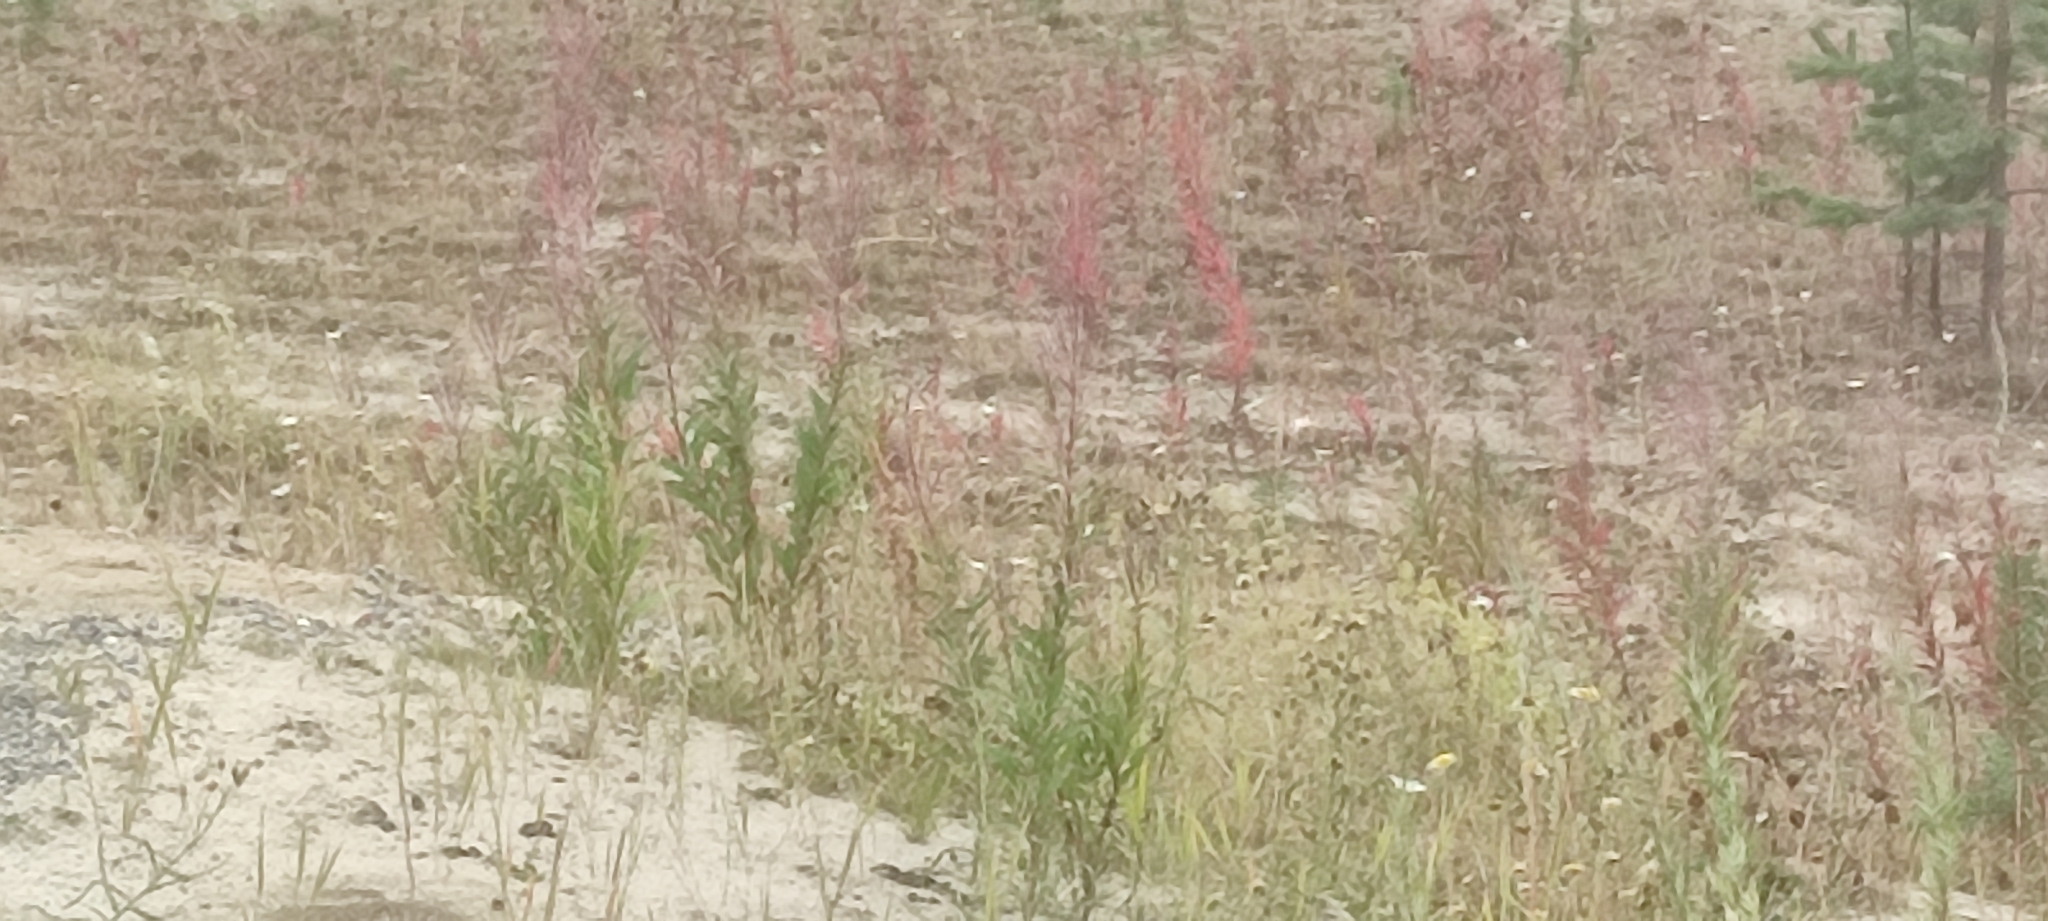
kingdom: Plantae
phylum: Tracheophyta
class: Magnoliopsida
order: Myrtales
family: Onagraceae
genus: Chamaenerion
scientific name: Chamaenerion angustifolium
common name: Fireweed
